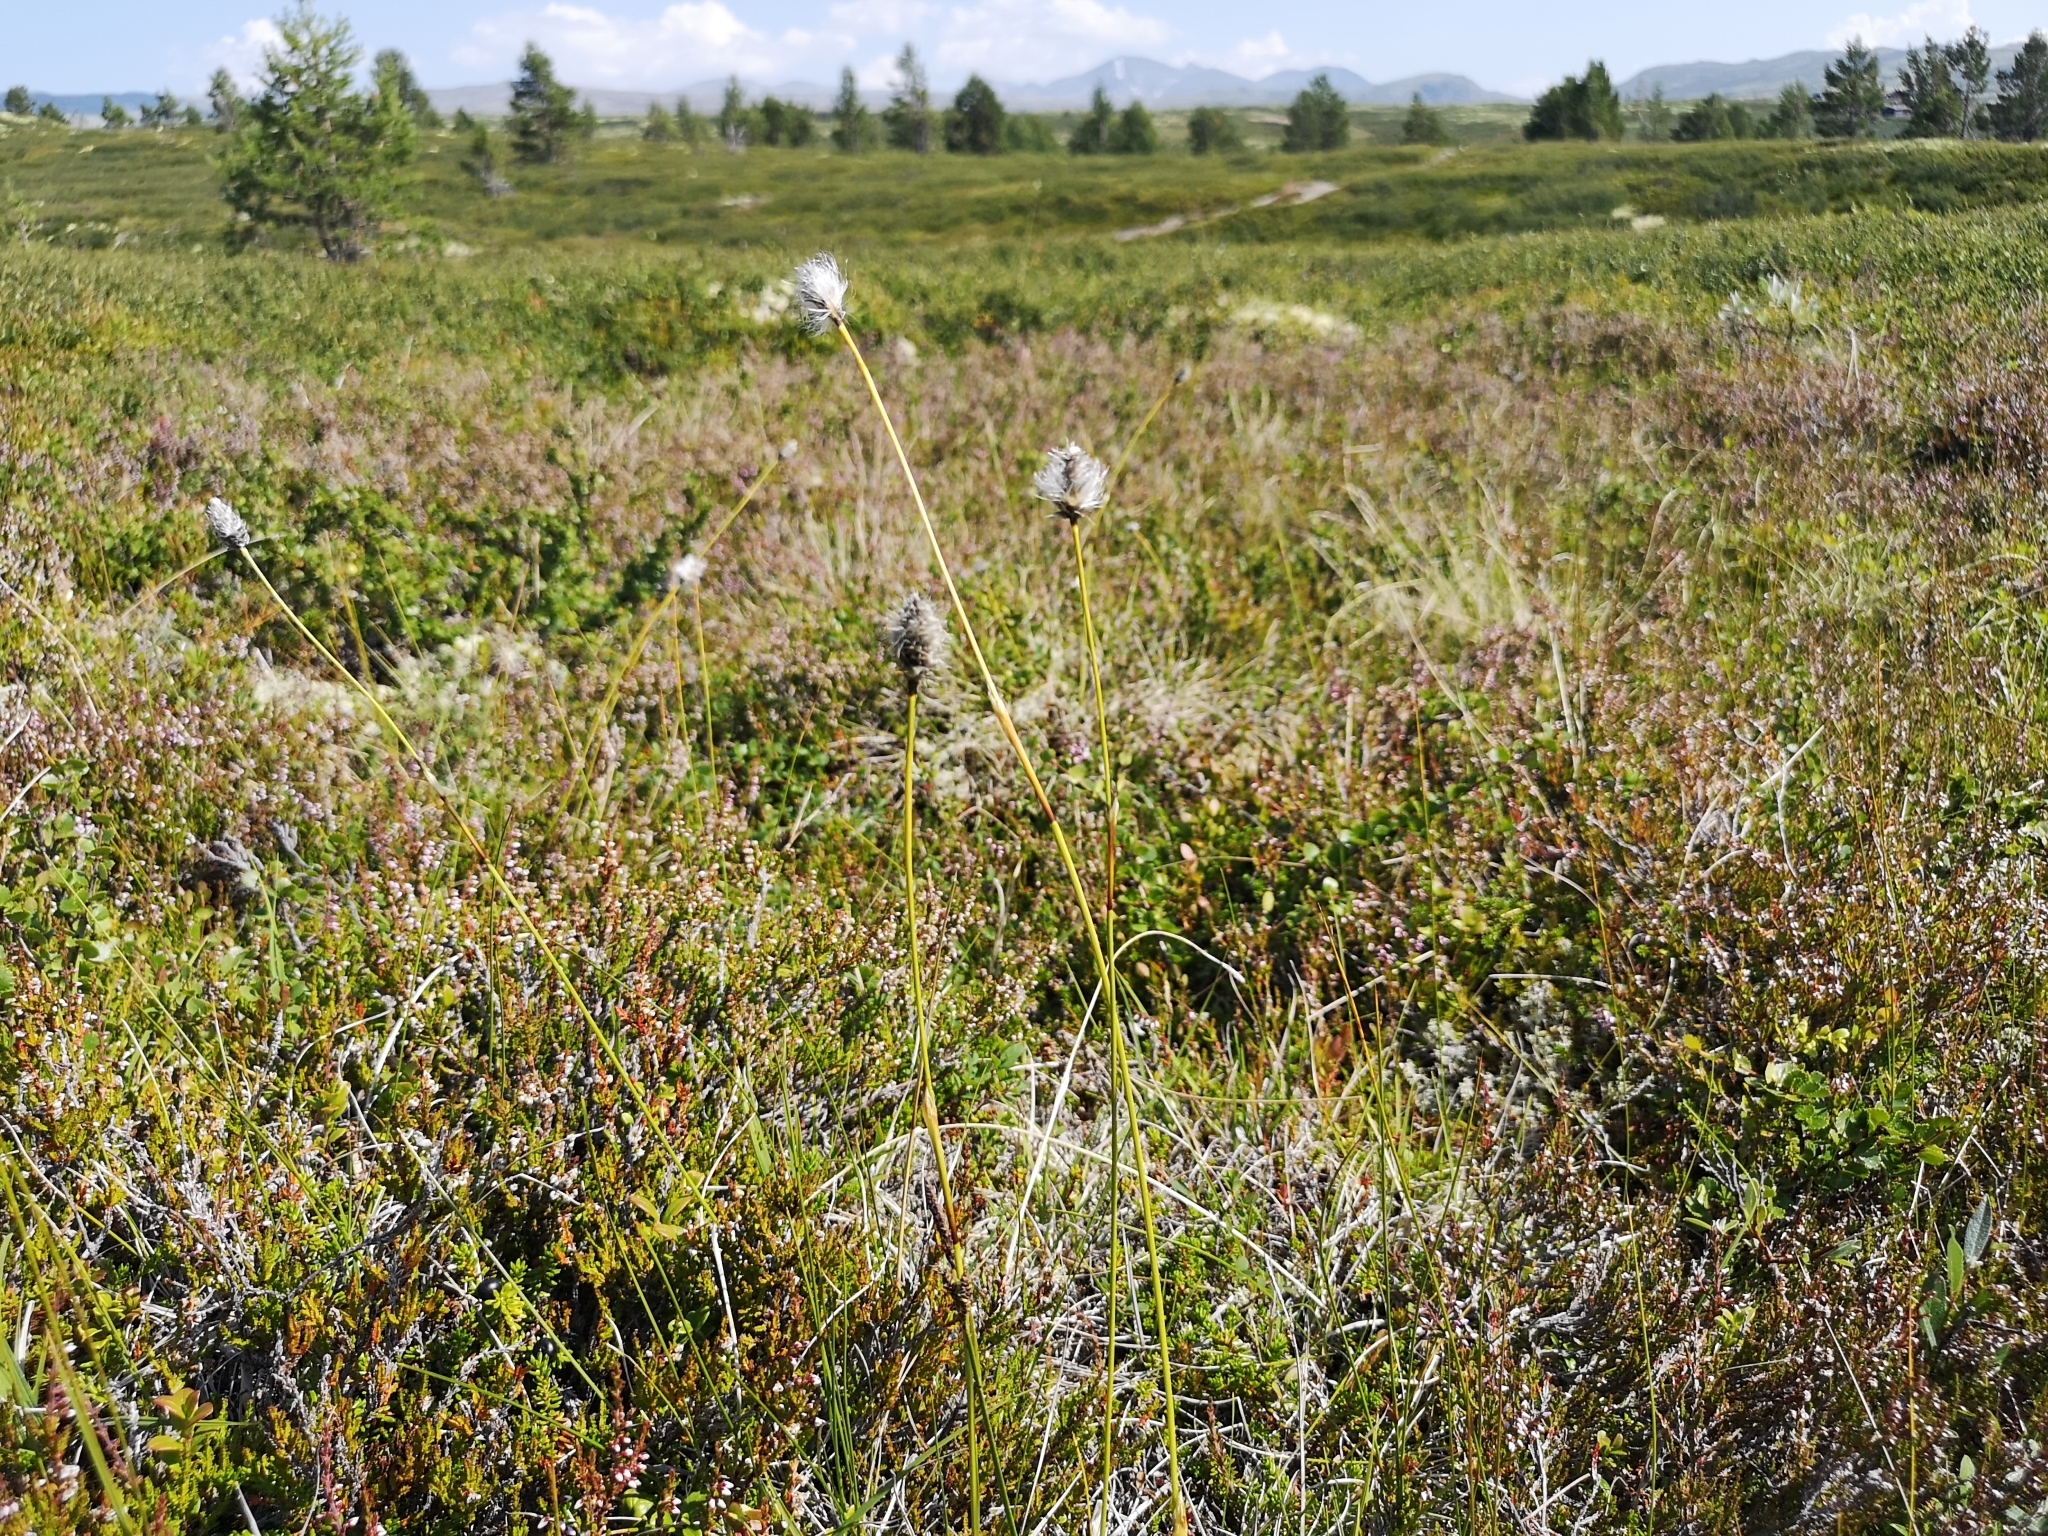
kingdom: Plantae
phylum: Tracheophyta
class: Liliopsida
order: Poales
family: Cyperaceae
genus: Eriophorum
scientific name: Eriophorum vaginatum
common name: Hare's-tail cottongrass
